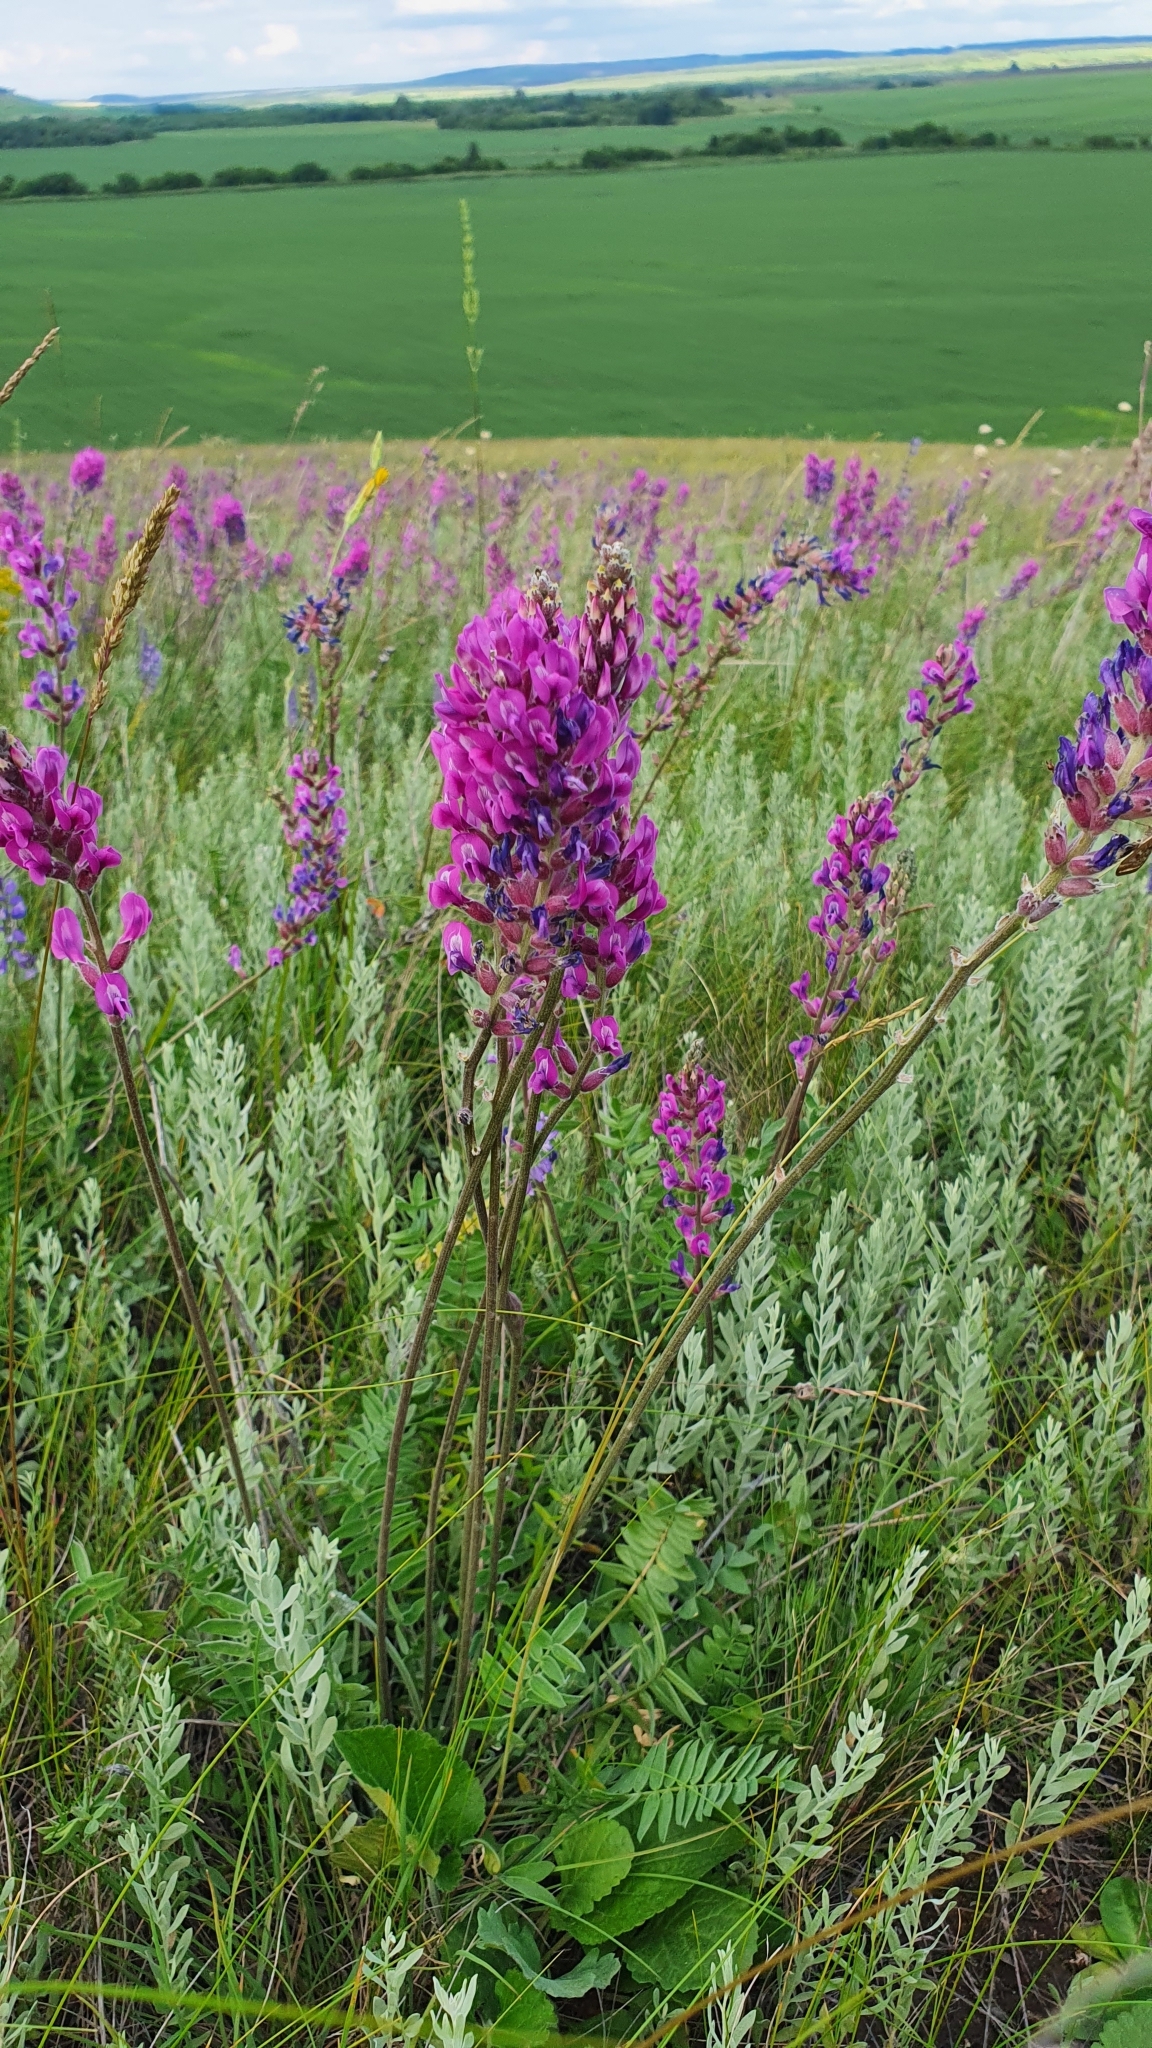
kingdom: Plantae
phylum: Tracheophyta
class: Magnoliopsida
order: Fabales
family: Fabaceae
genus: Oxytropis
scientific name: Oxytropis knjazevii
